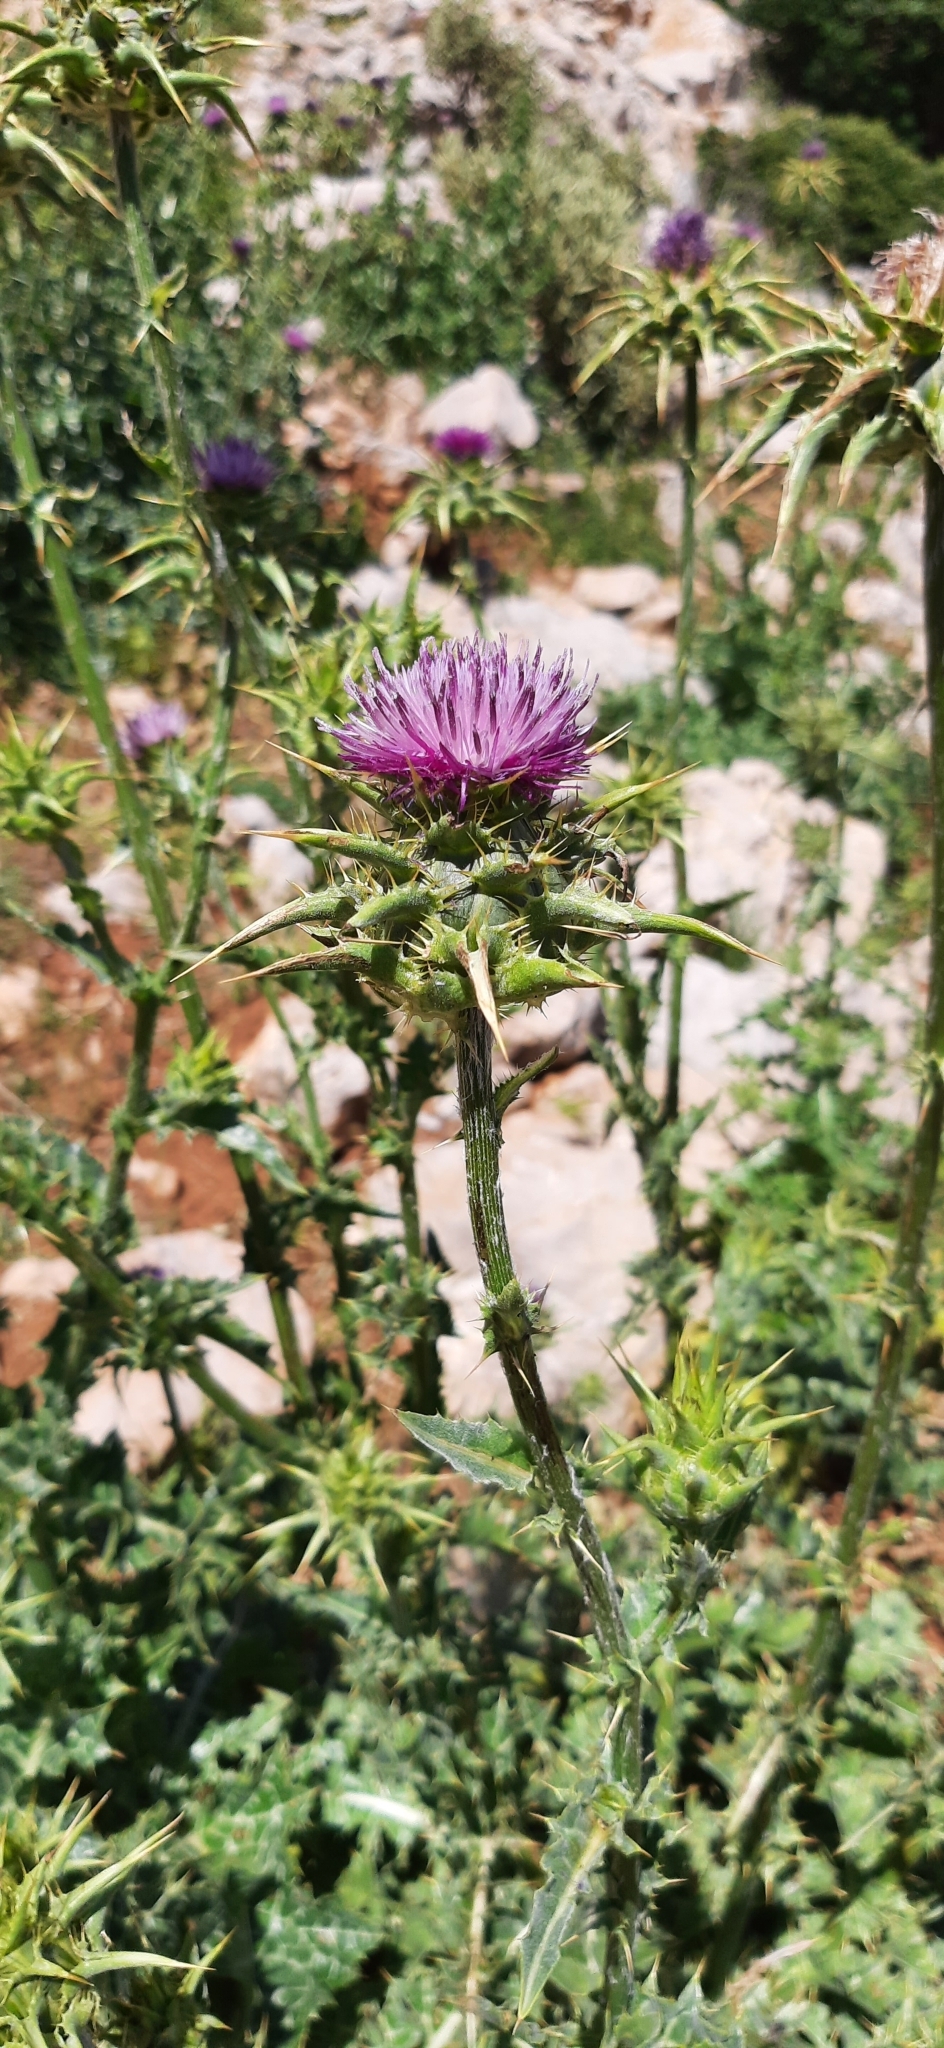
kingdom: Plantae
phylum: Tracheophyta
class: Magnoliopsida
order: Asterales
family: Asteraceae
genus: Silybum
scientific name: Silybum marianum
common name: Milk thistle
